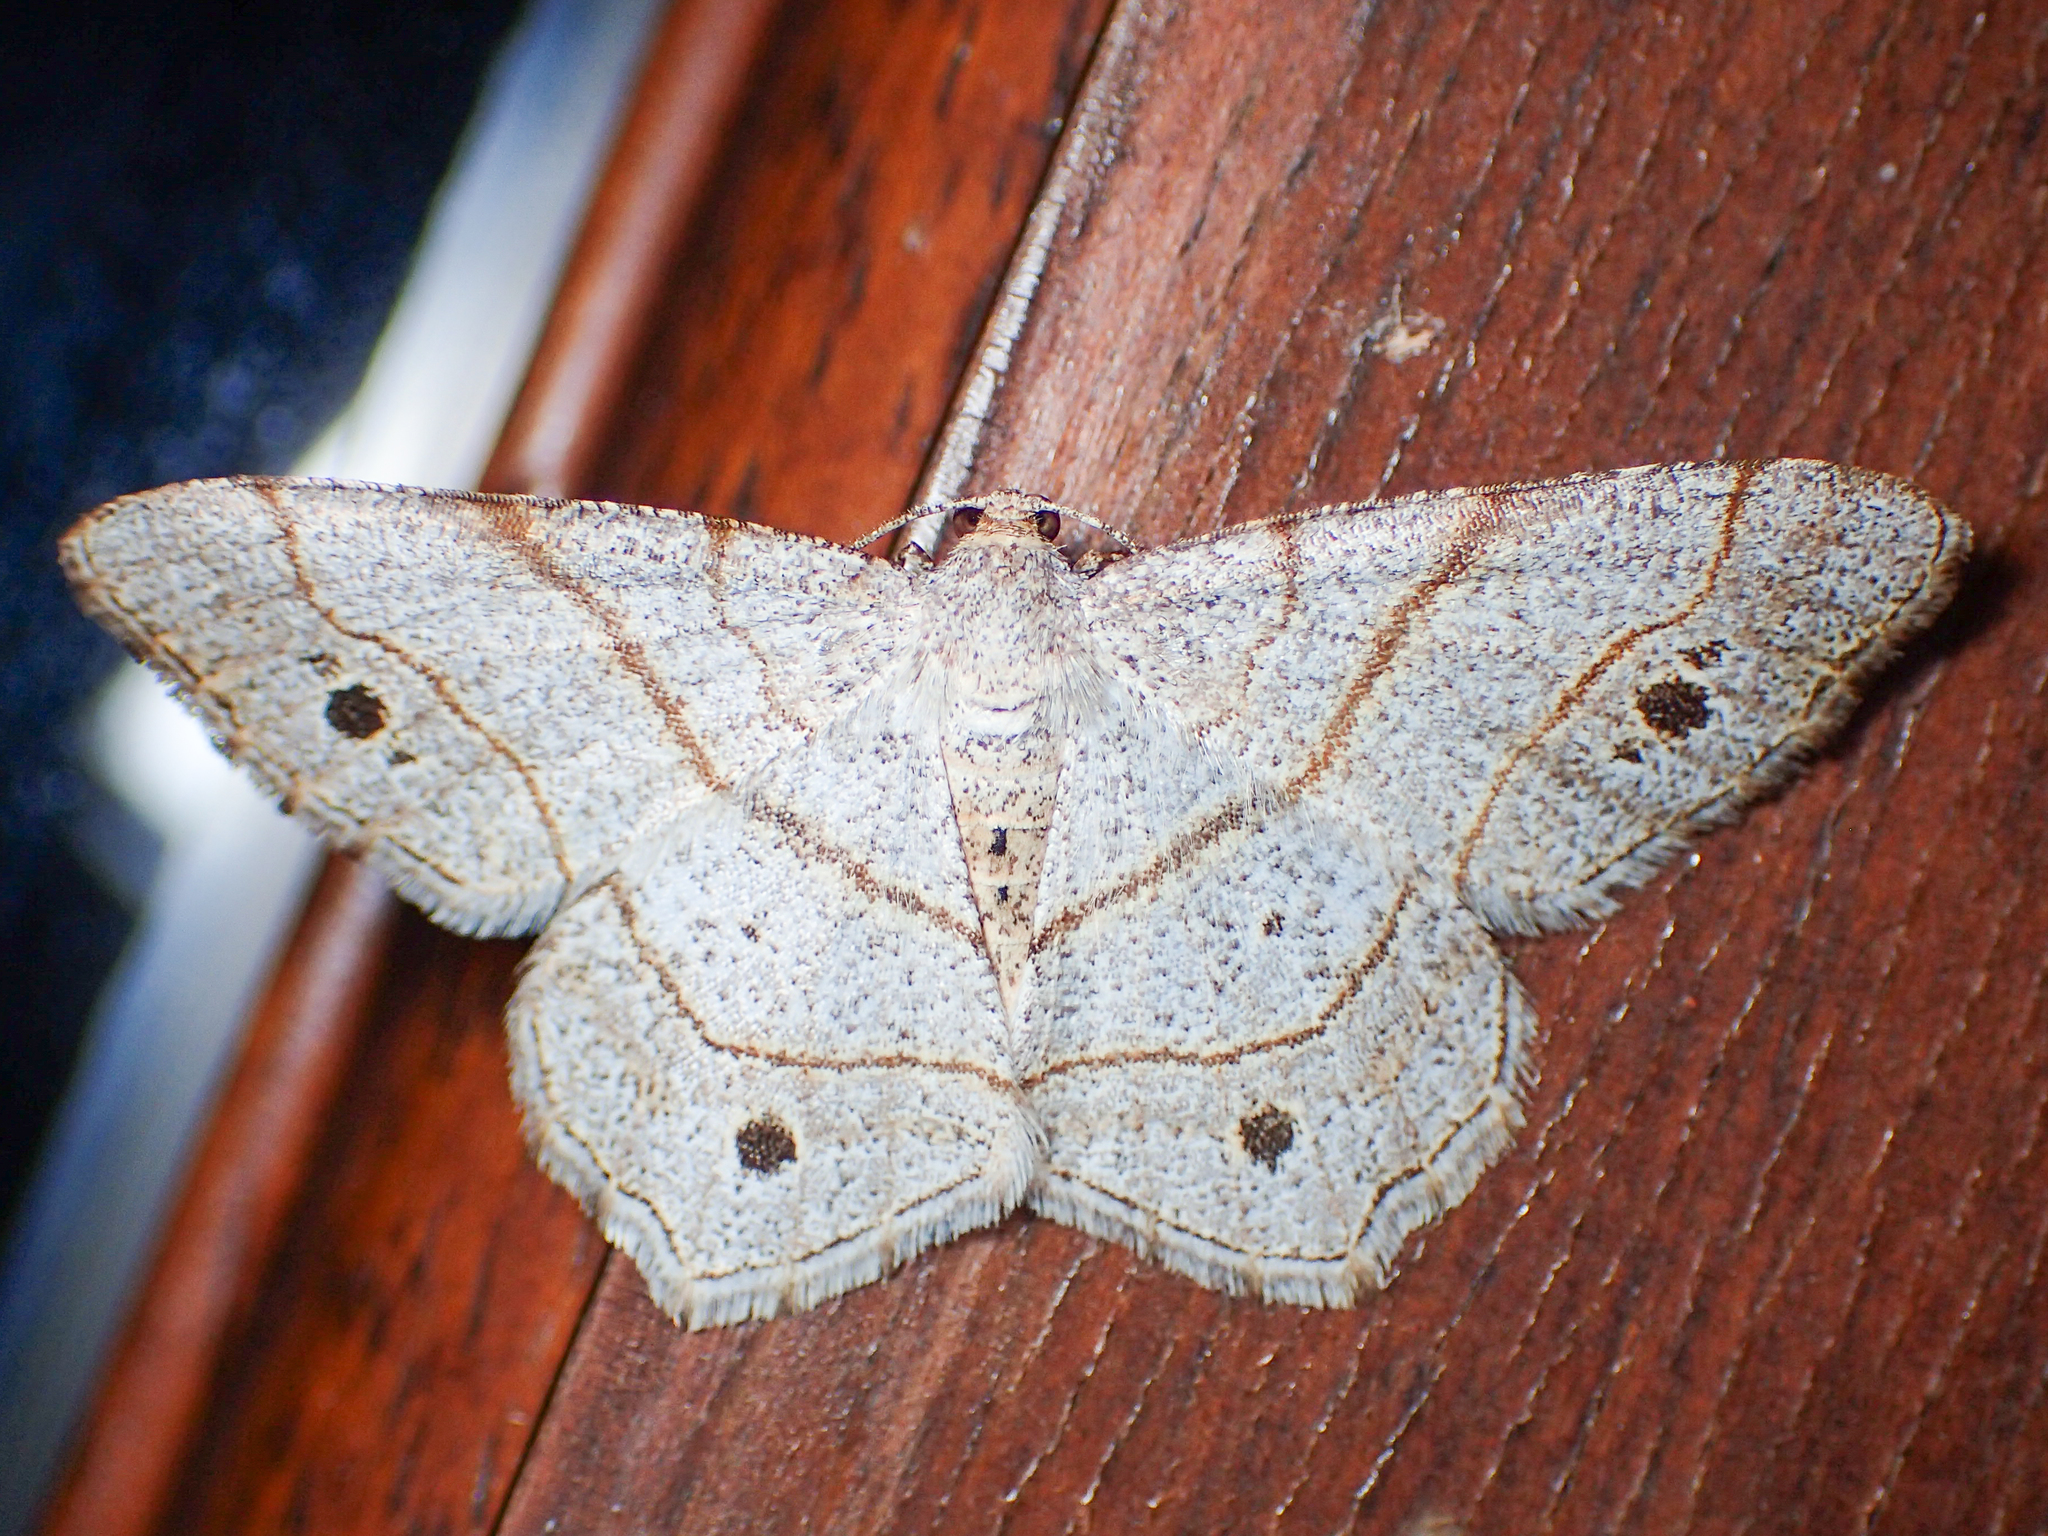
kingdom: Animalia
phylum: Arthropoda
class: Insecta
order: Lepidoptera
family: Geometridae
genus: Trigrammia
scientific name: Trigrammia quadrinotaria
